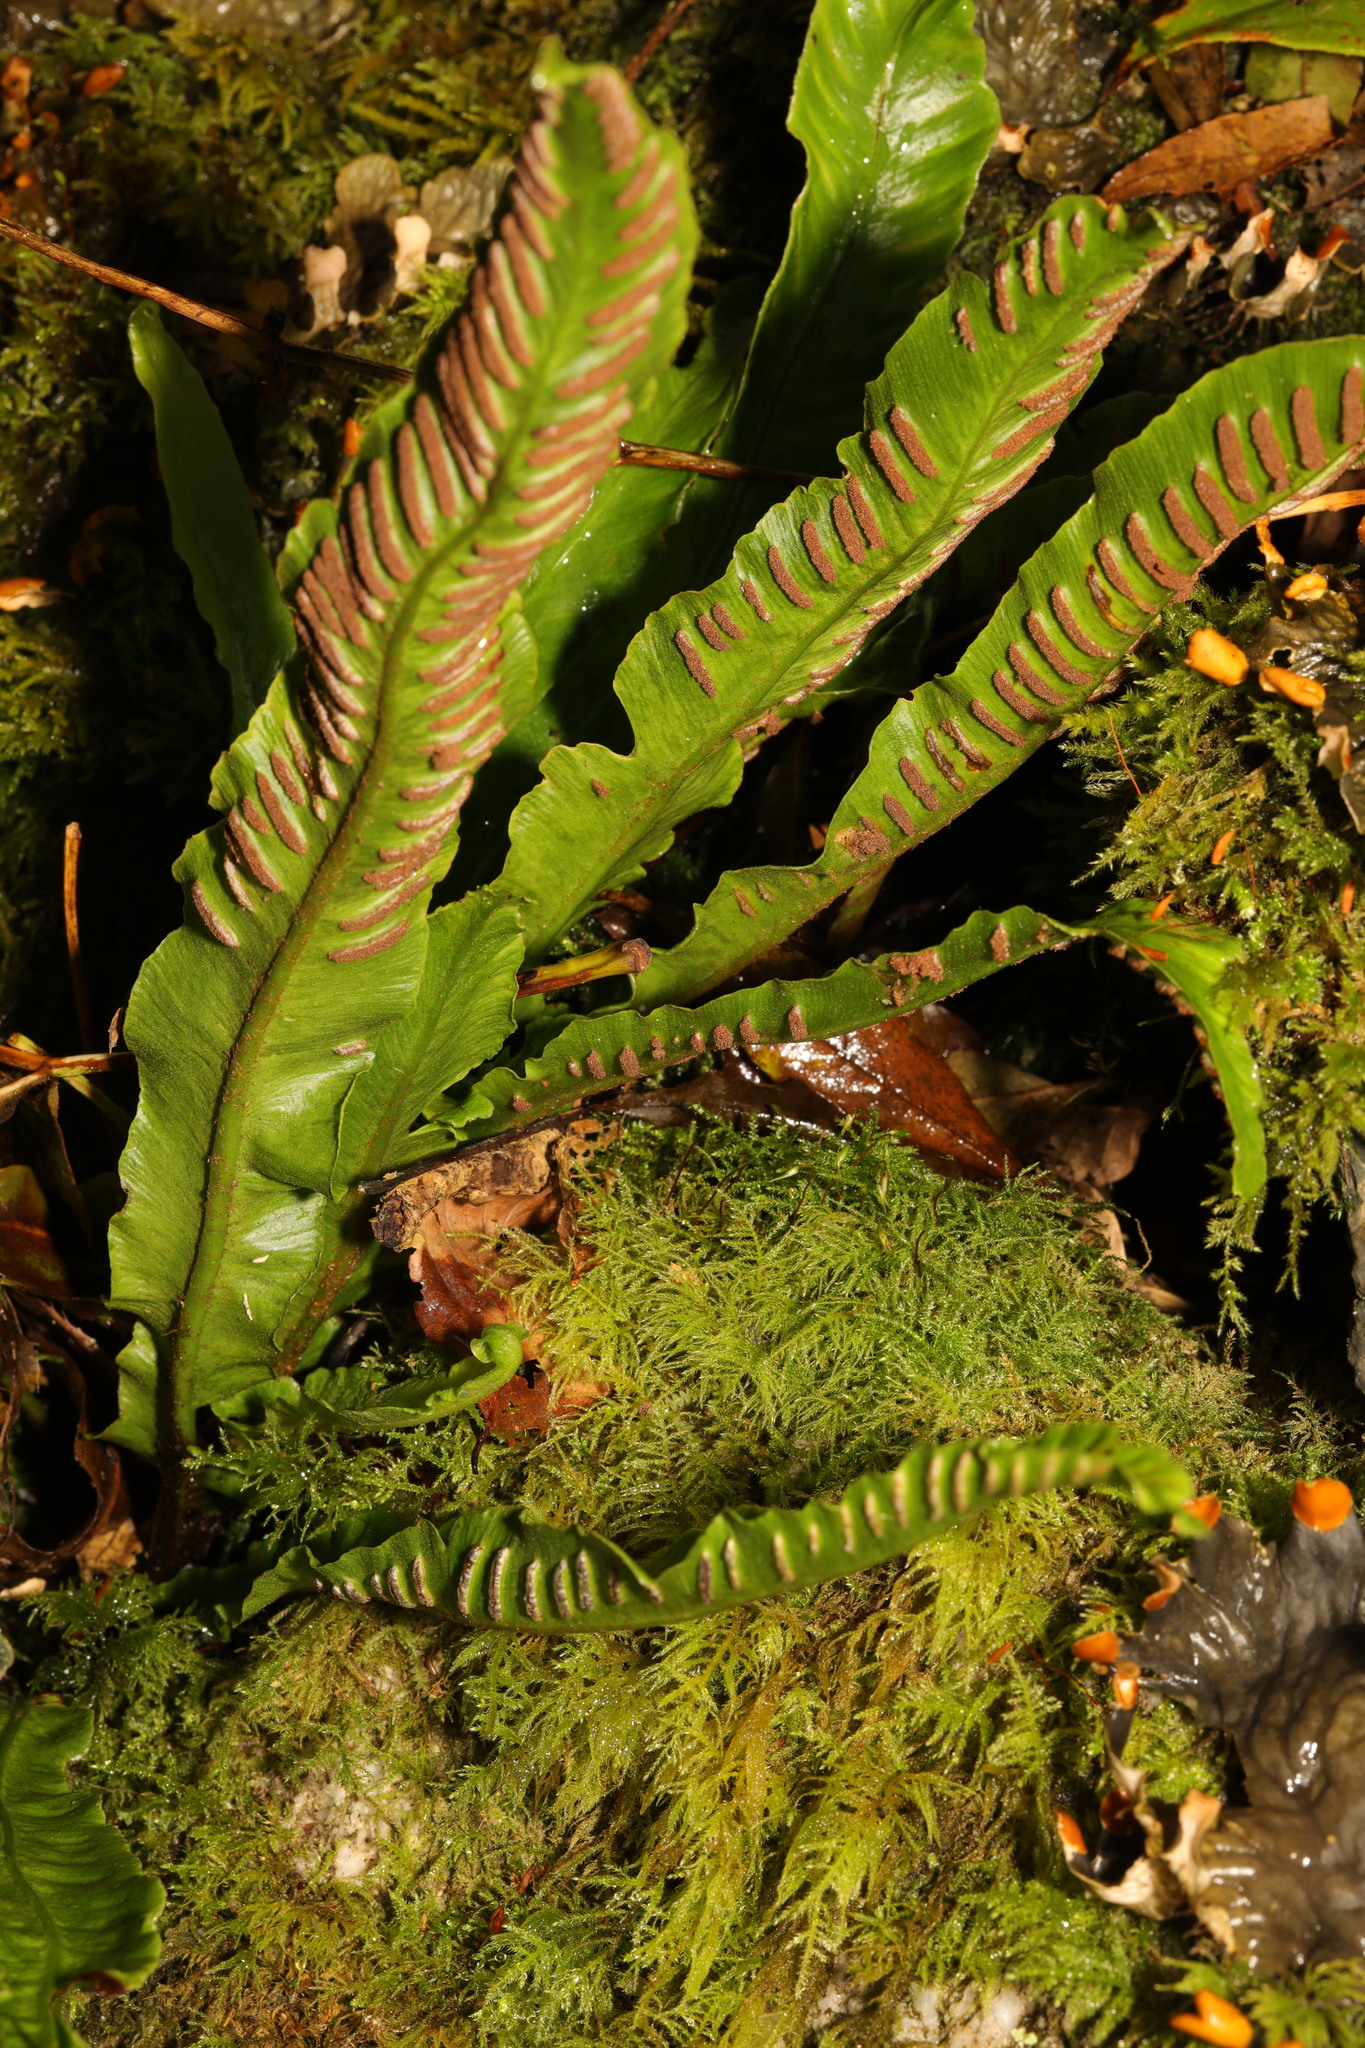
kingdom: Plantae
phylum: Tracheophyta
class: Polypodiopsida
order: Polypodiales
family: Aspleniaceae
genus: Asplenium
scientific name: Asplenium scolopendrium
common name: Hart's-tongue fern
